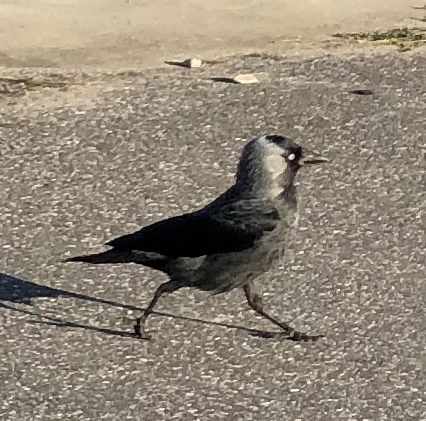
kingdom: Animalia
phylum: Chordata
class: Aves
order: Passeriformes
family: Corvidae
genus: Coloeus
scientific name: Coloeus monedula
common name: Western jackdaw
